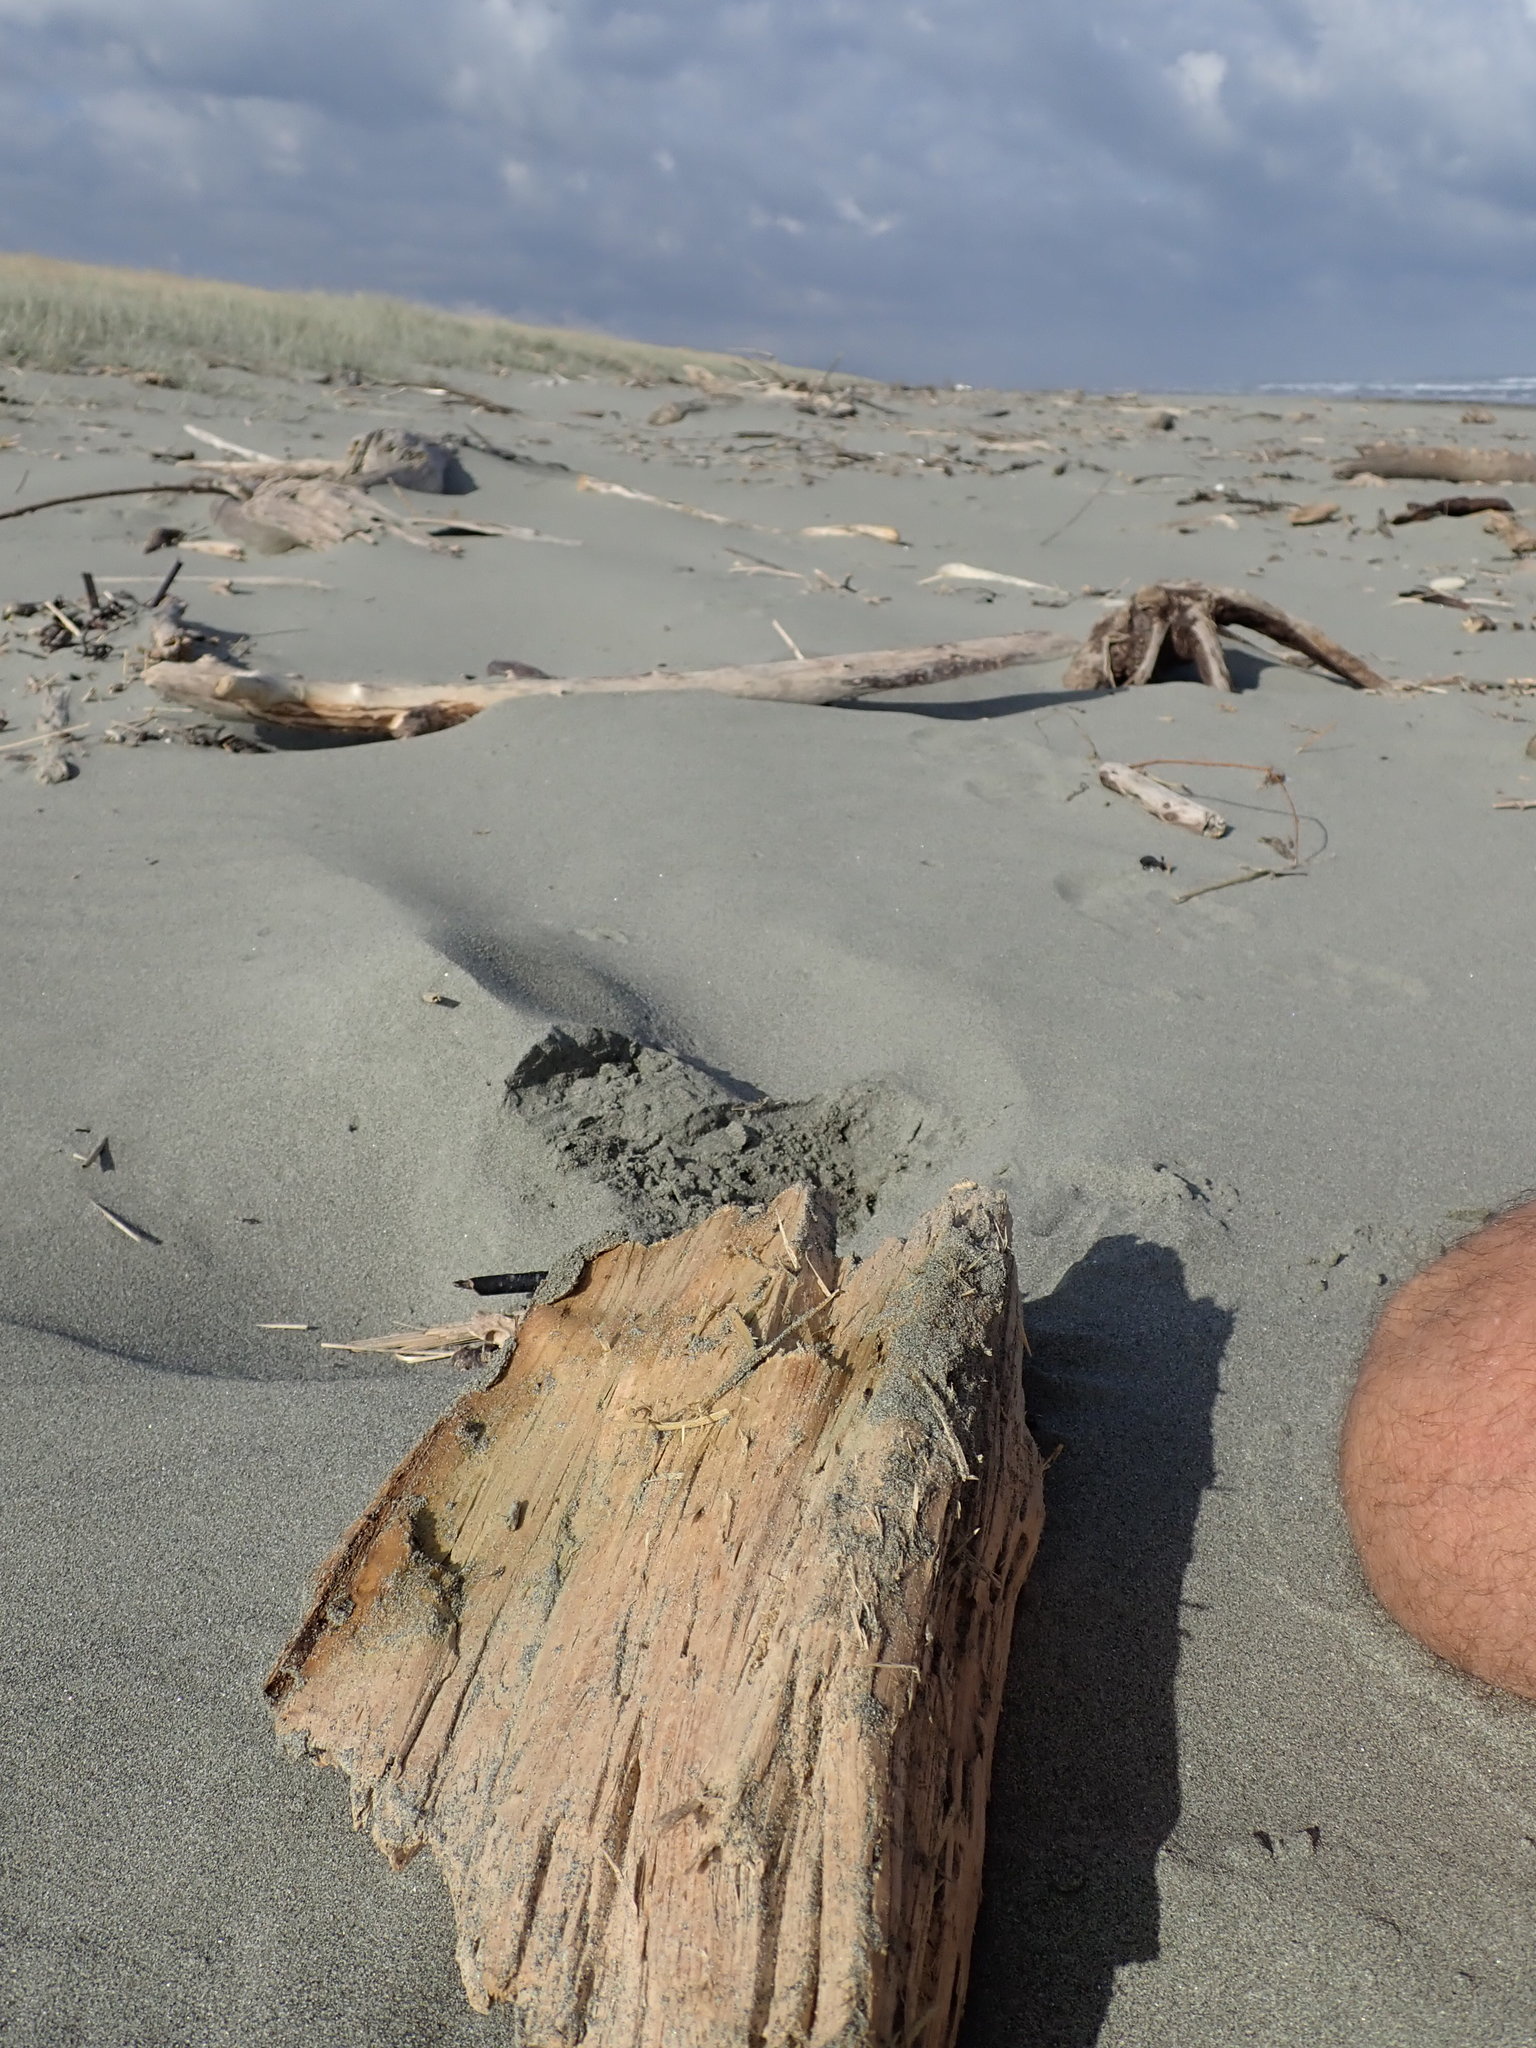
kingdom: Animalia
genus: Lagrioda
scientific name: Lagrioda brounii
